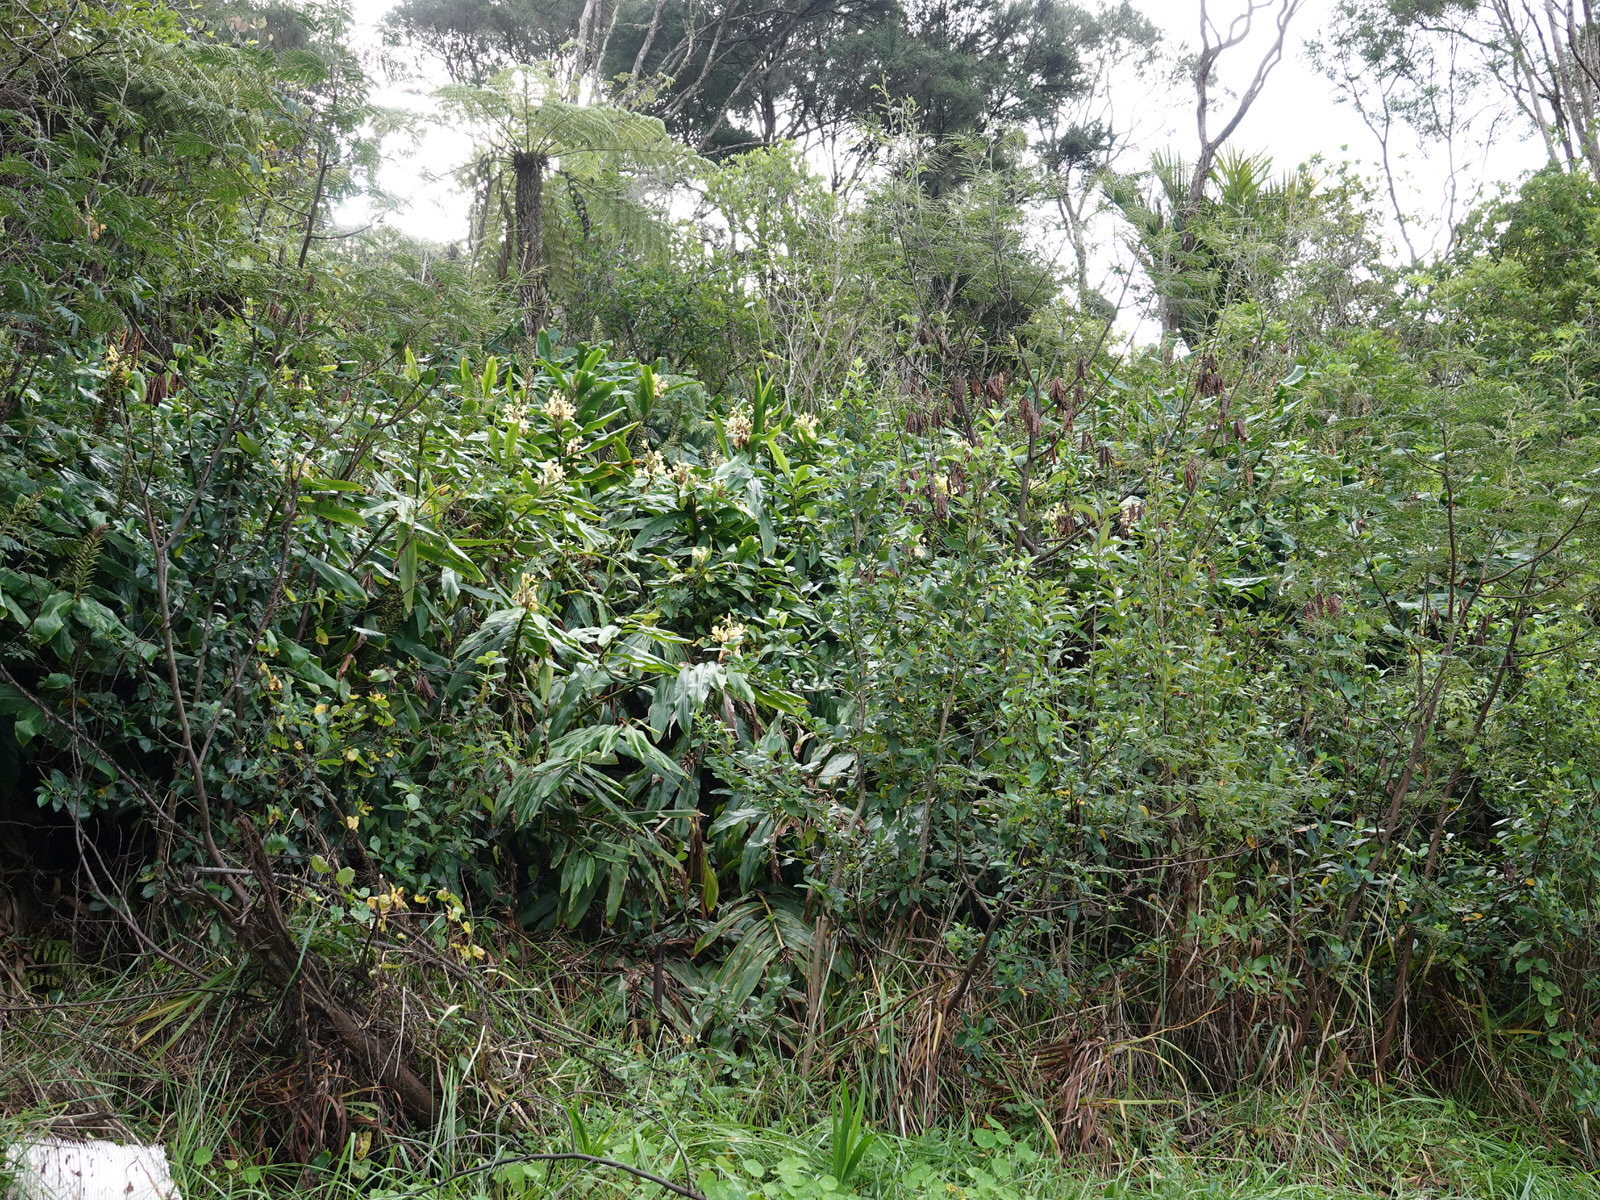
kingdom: Plantae
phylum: Tracheophyta
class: Liliopsida
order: Zingiberales
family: Zingiberaceae
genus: Hedychium
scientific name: Hedychium flavescens
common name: Yellow ginger
